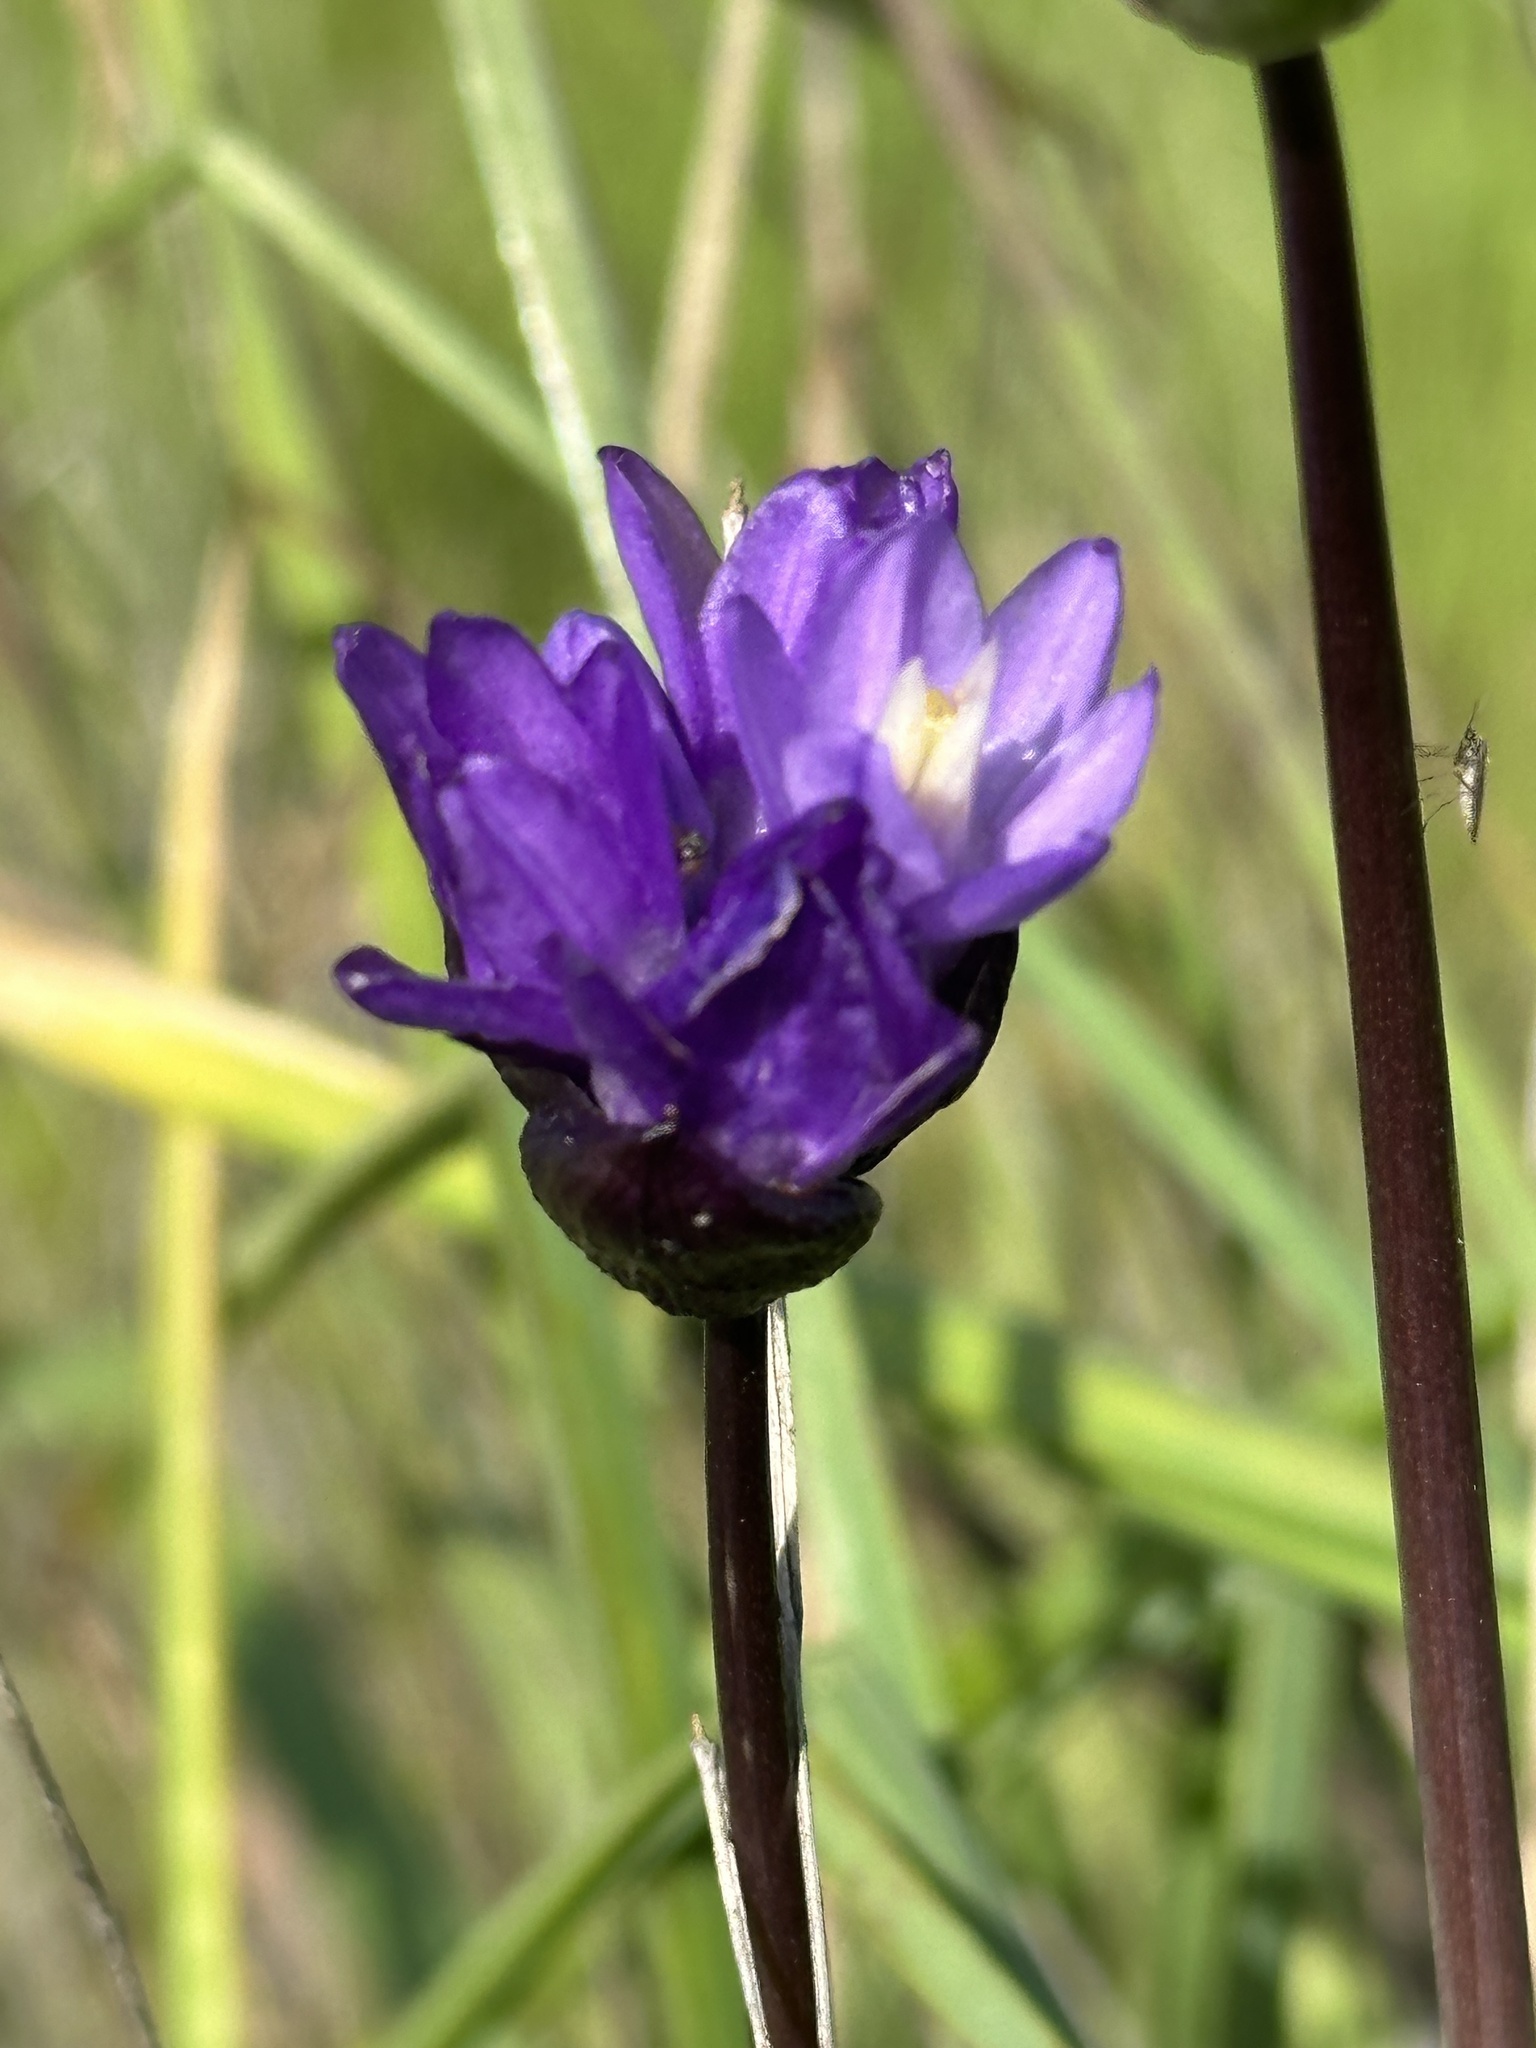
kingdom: Plantae
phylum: Tracheophyta
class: Liliopsida
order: Asparagales
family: Asparagaceae
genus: Dipterostemon
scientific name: Dipterostemon capitatus
